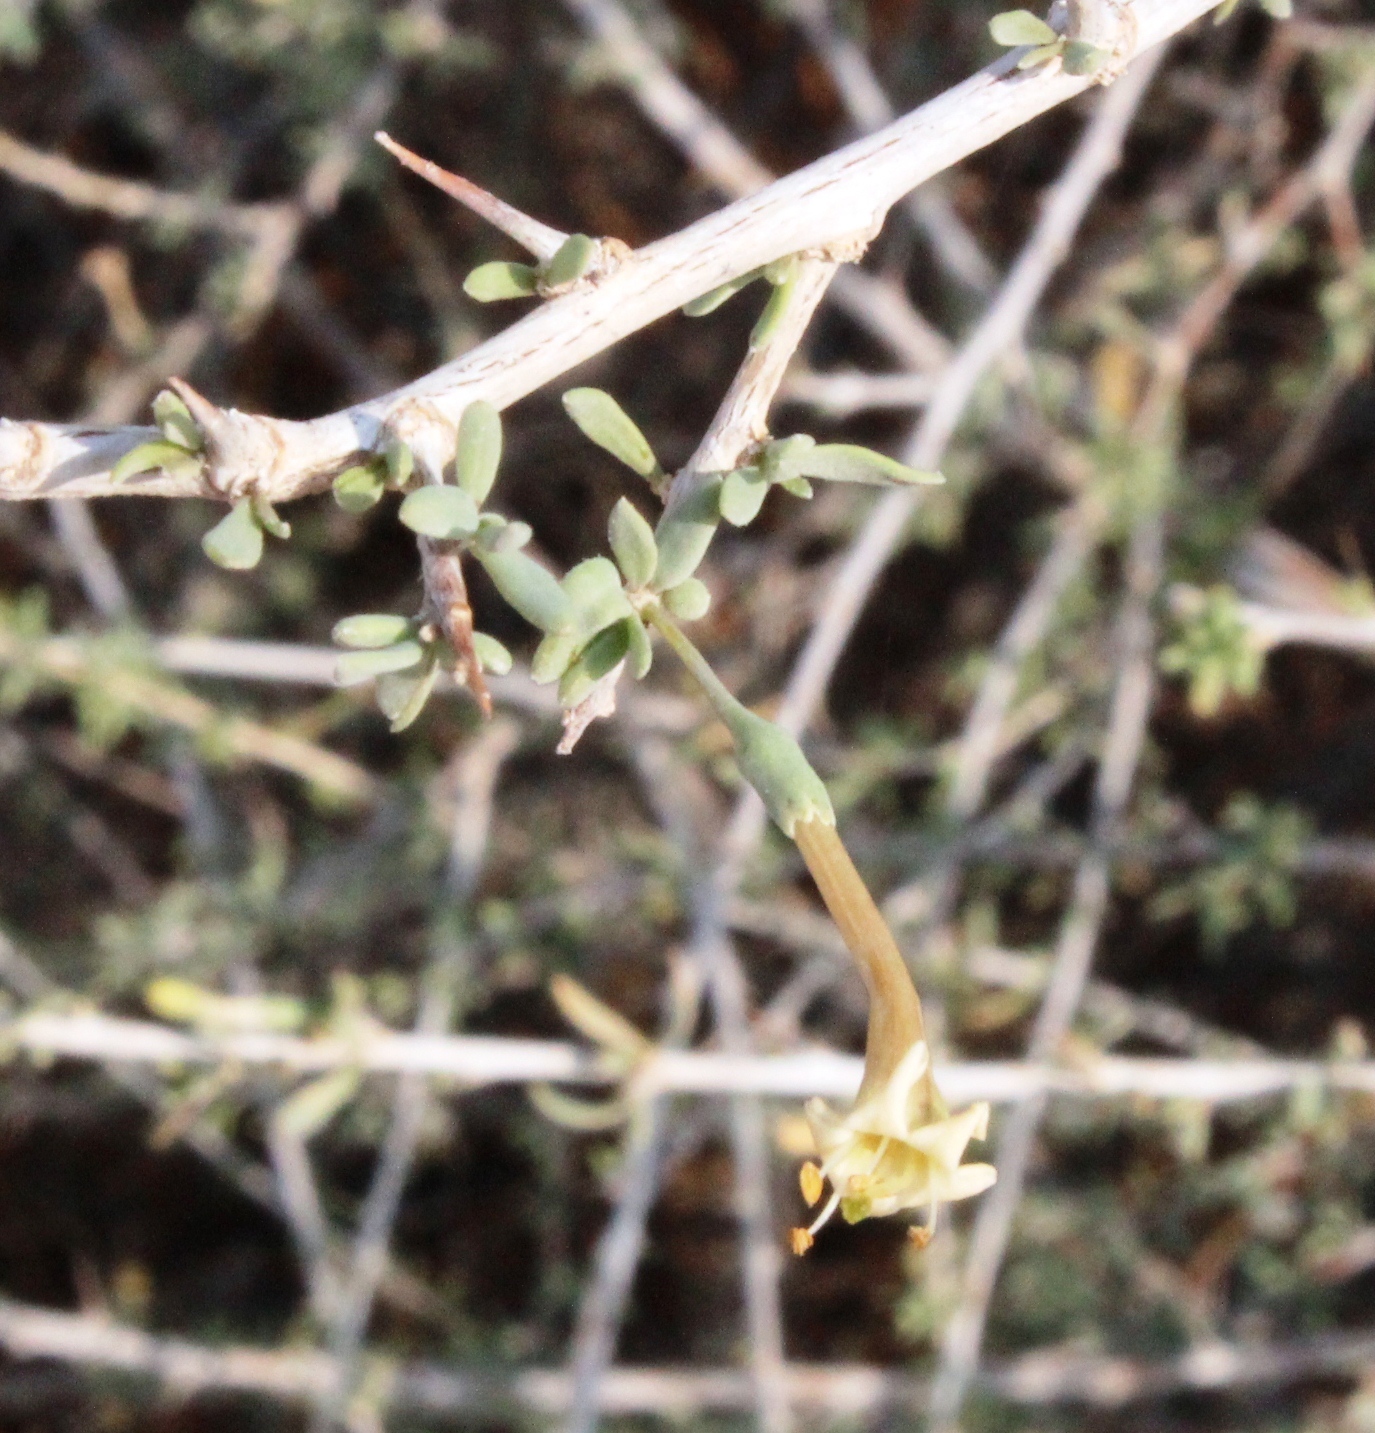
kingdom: Plantae
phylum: Tracheophyta
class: Magnoliopsida
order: Solanales
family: Solanaceae
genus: Lycium
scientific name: Lycium bosciifolium
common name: Limpopo honey-thorn
